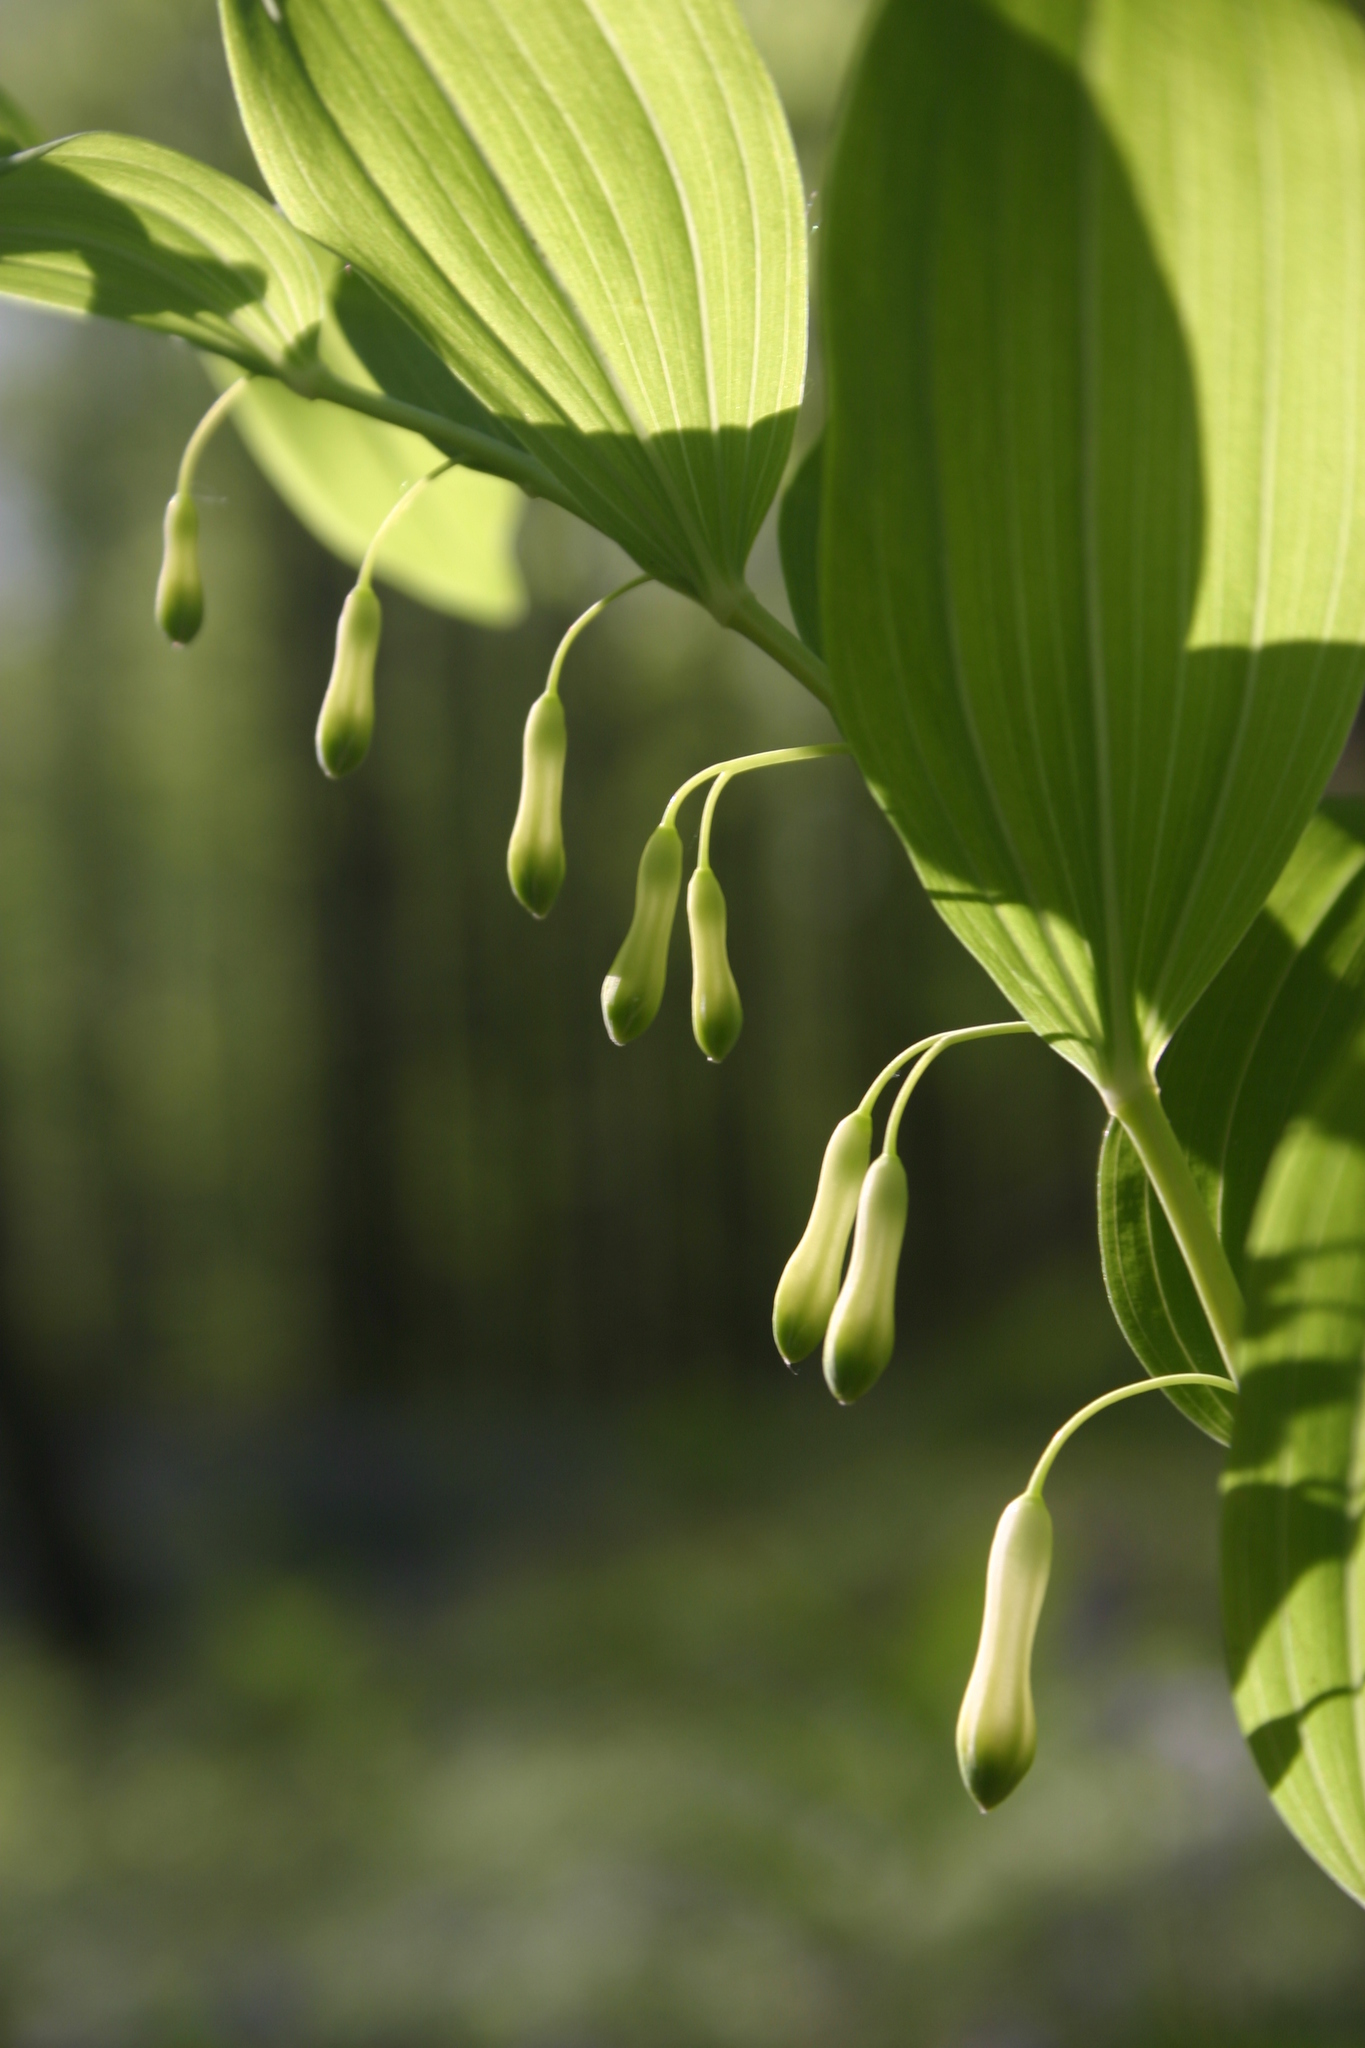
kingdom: Plantae
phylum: Tracheophyta
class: Liliopsida
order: Asparagales
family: Asparagaceae
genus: Polygonatum
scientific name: Polygonatum multiflorum
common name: Solomon's-seal
